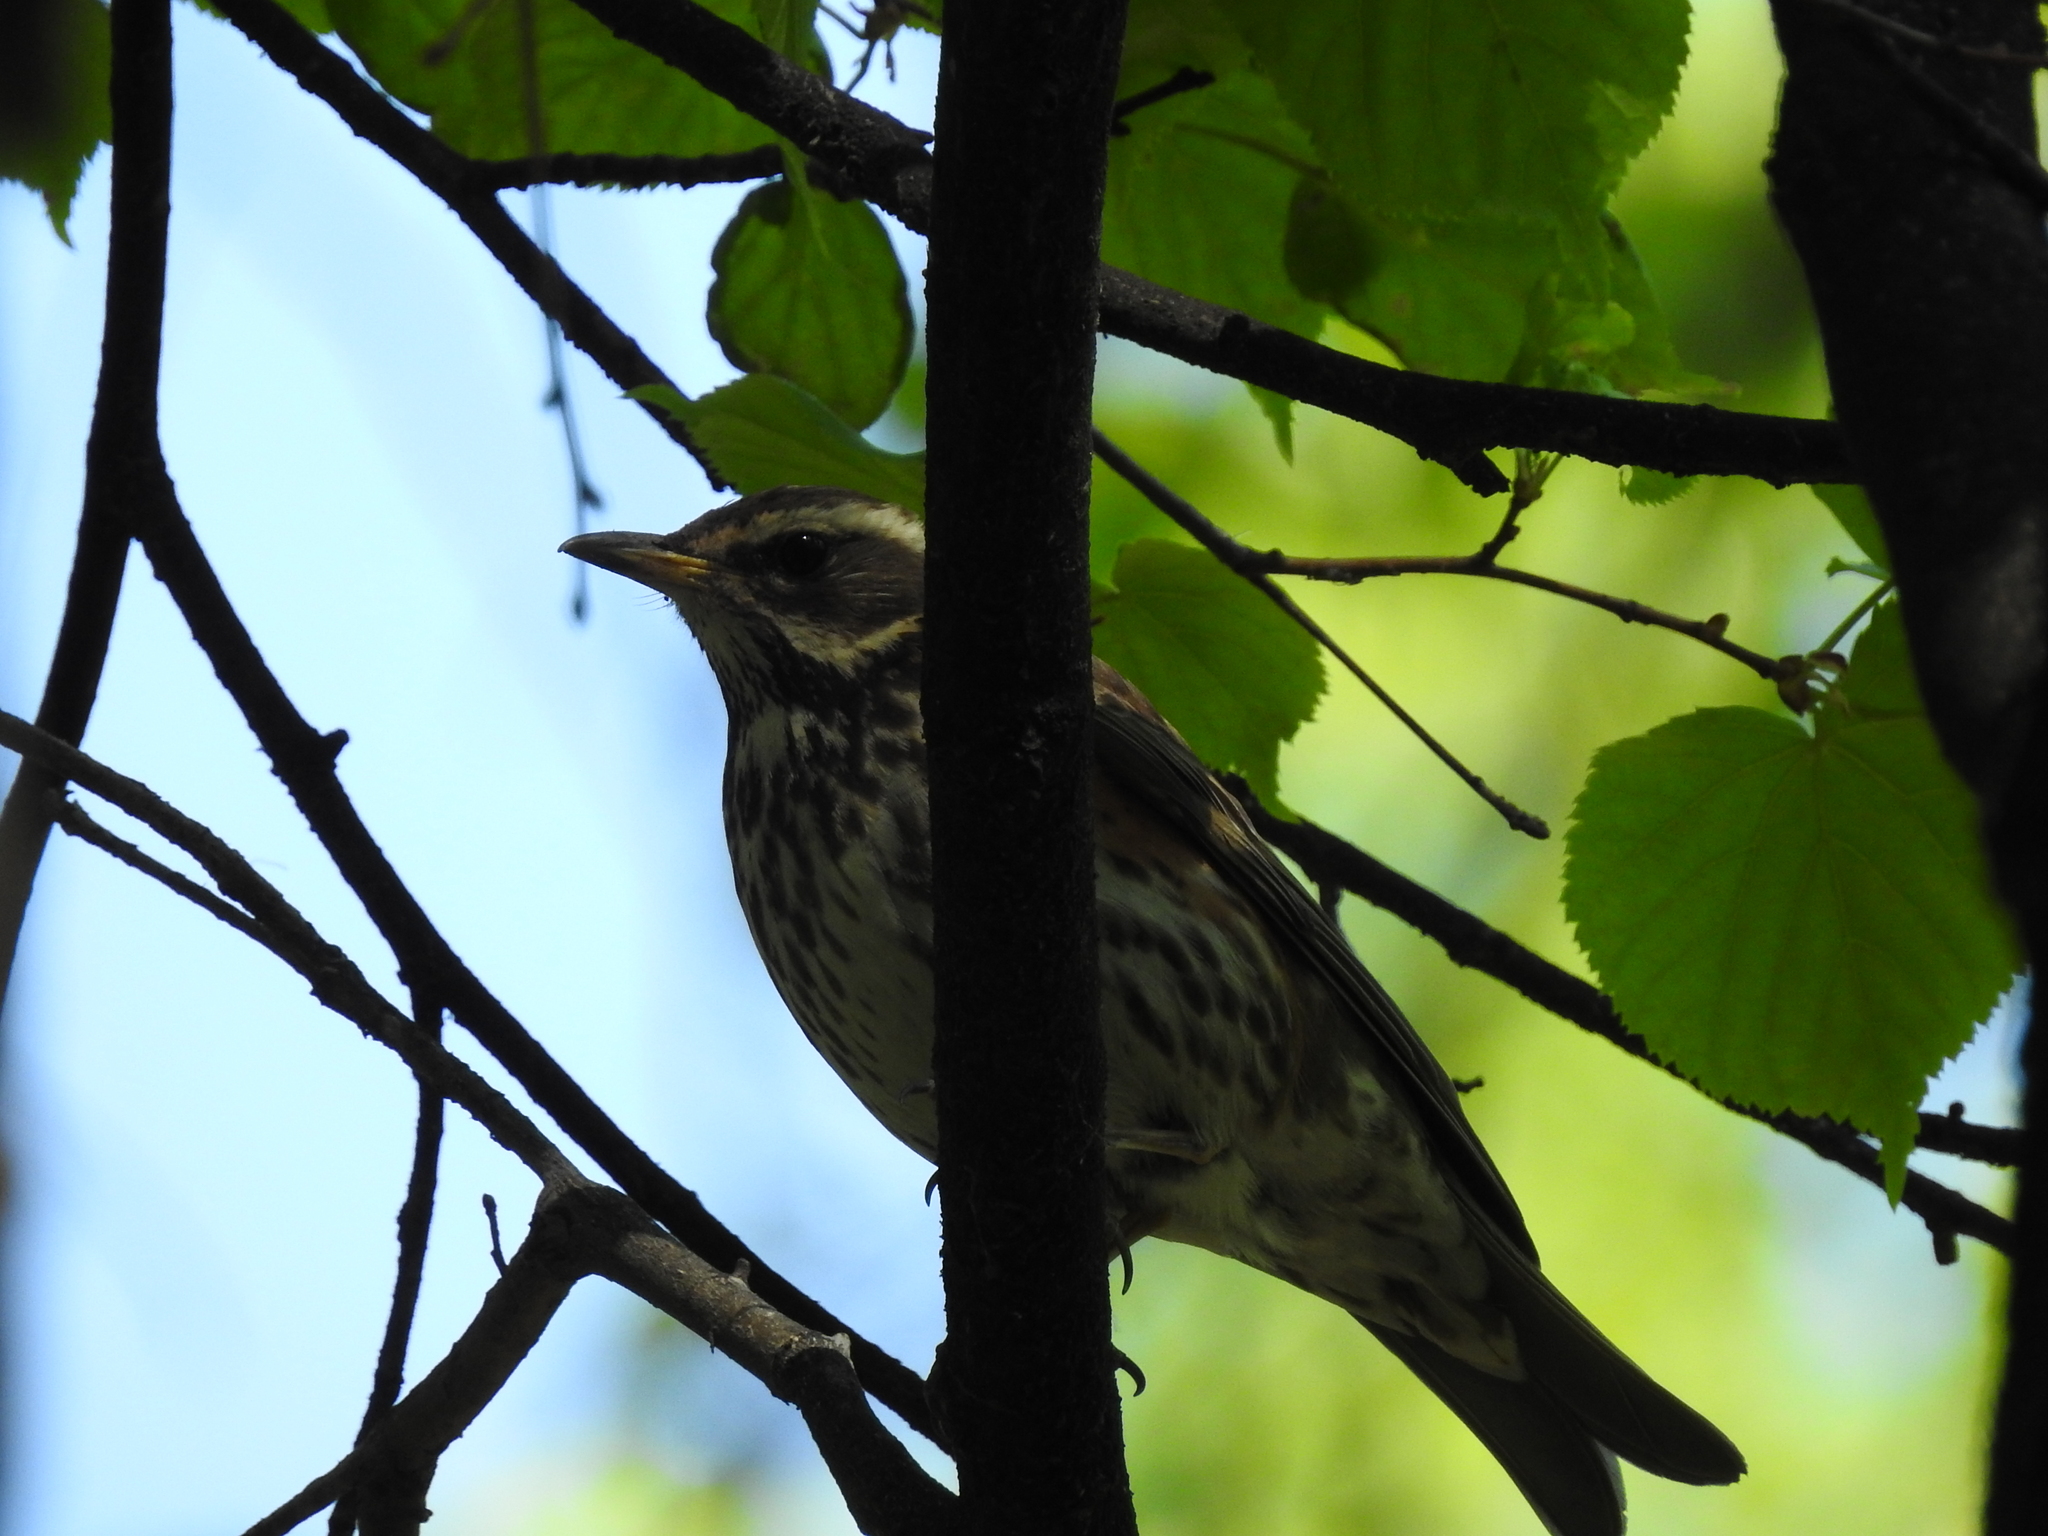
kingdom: Animalia
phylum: Chordata
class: Aves
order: Passeriformes
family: Turdidae
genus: Turdus
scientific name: Turdus iliacus
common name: Redwing
